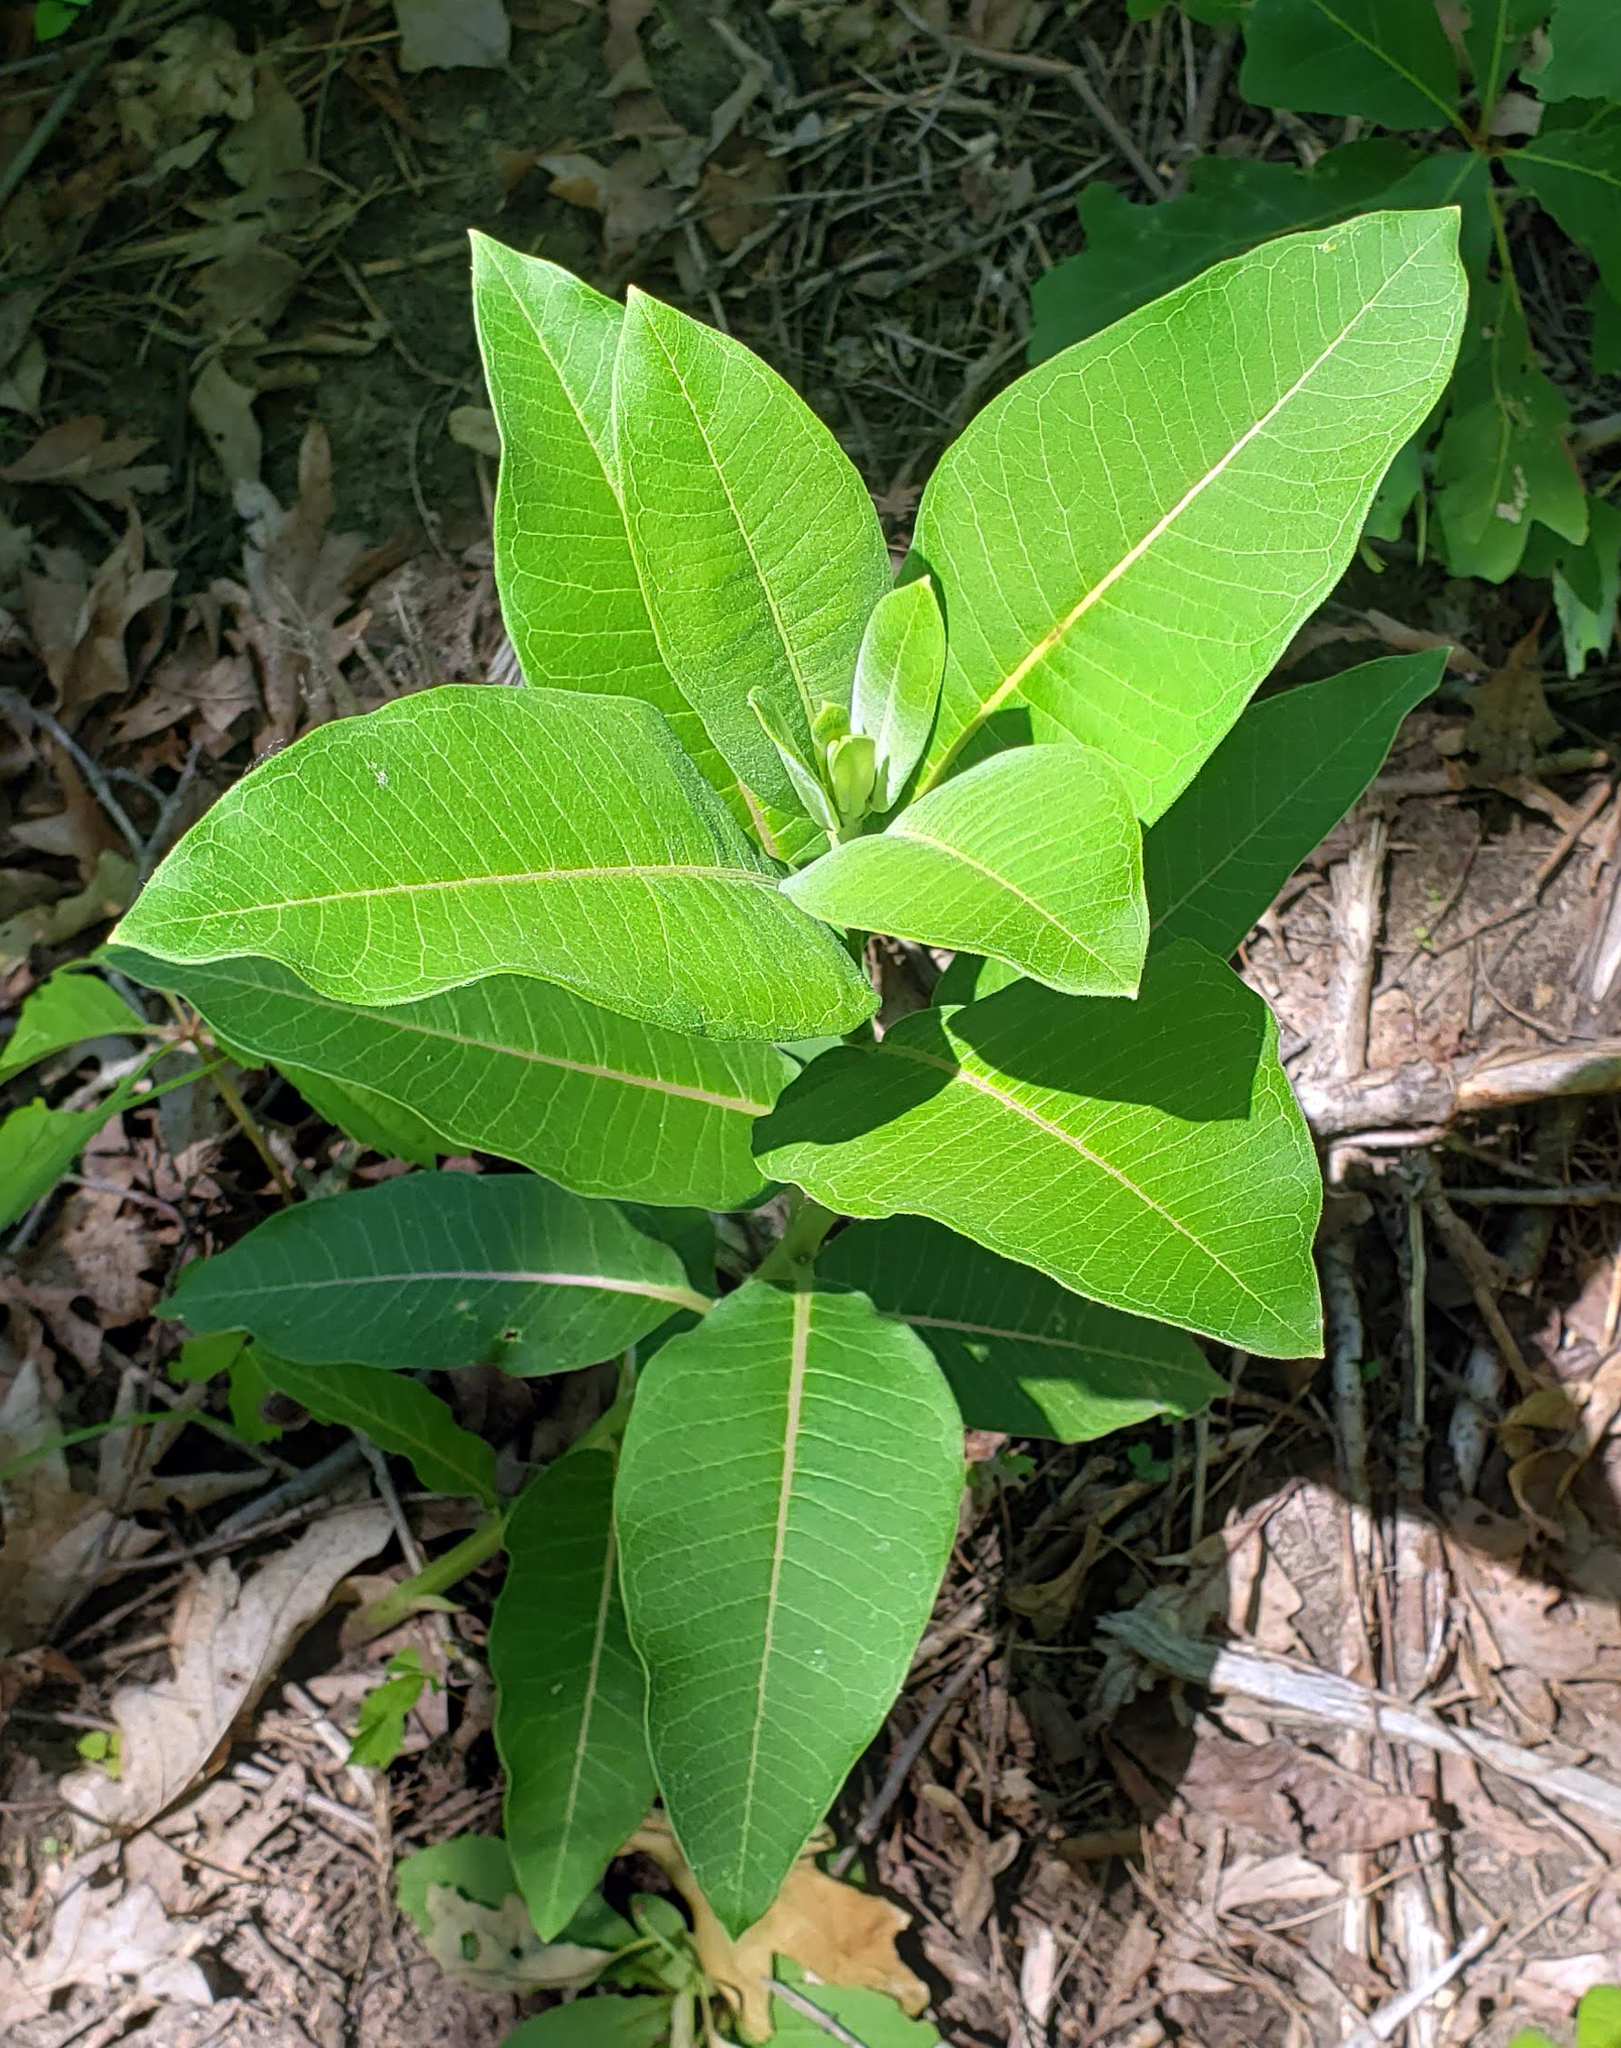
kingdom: Plantae
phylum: Tracheophyta
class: Magnoliopsida
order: Gentianales
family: Apocynaceae
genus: Asclepias
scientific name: Asclepias syriaca
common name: Common milkweed
